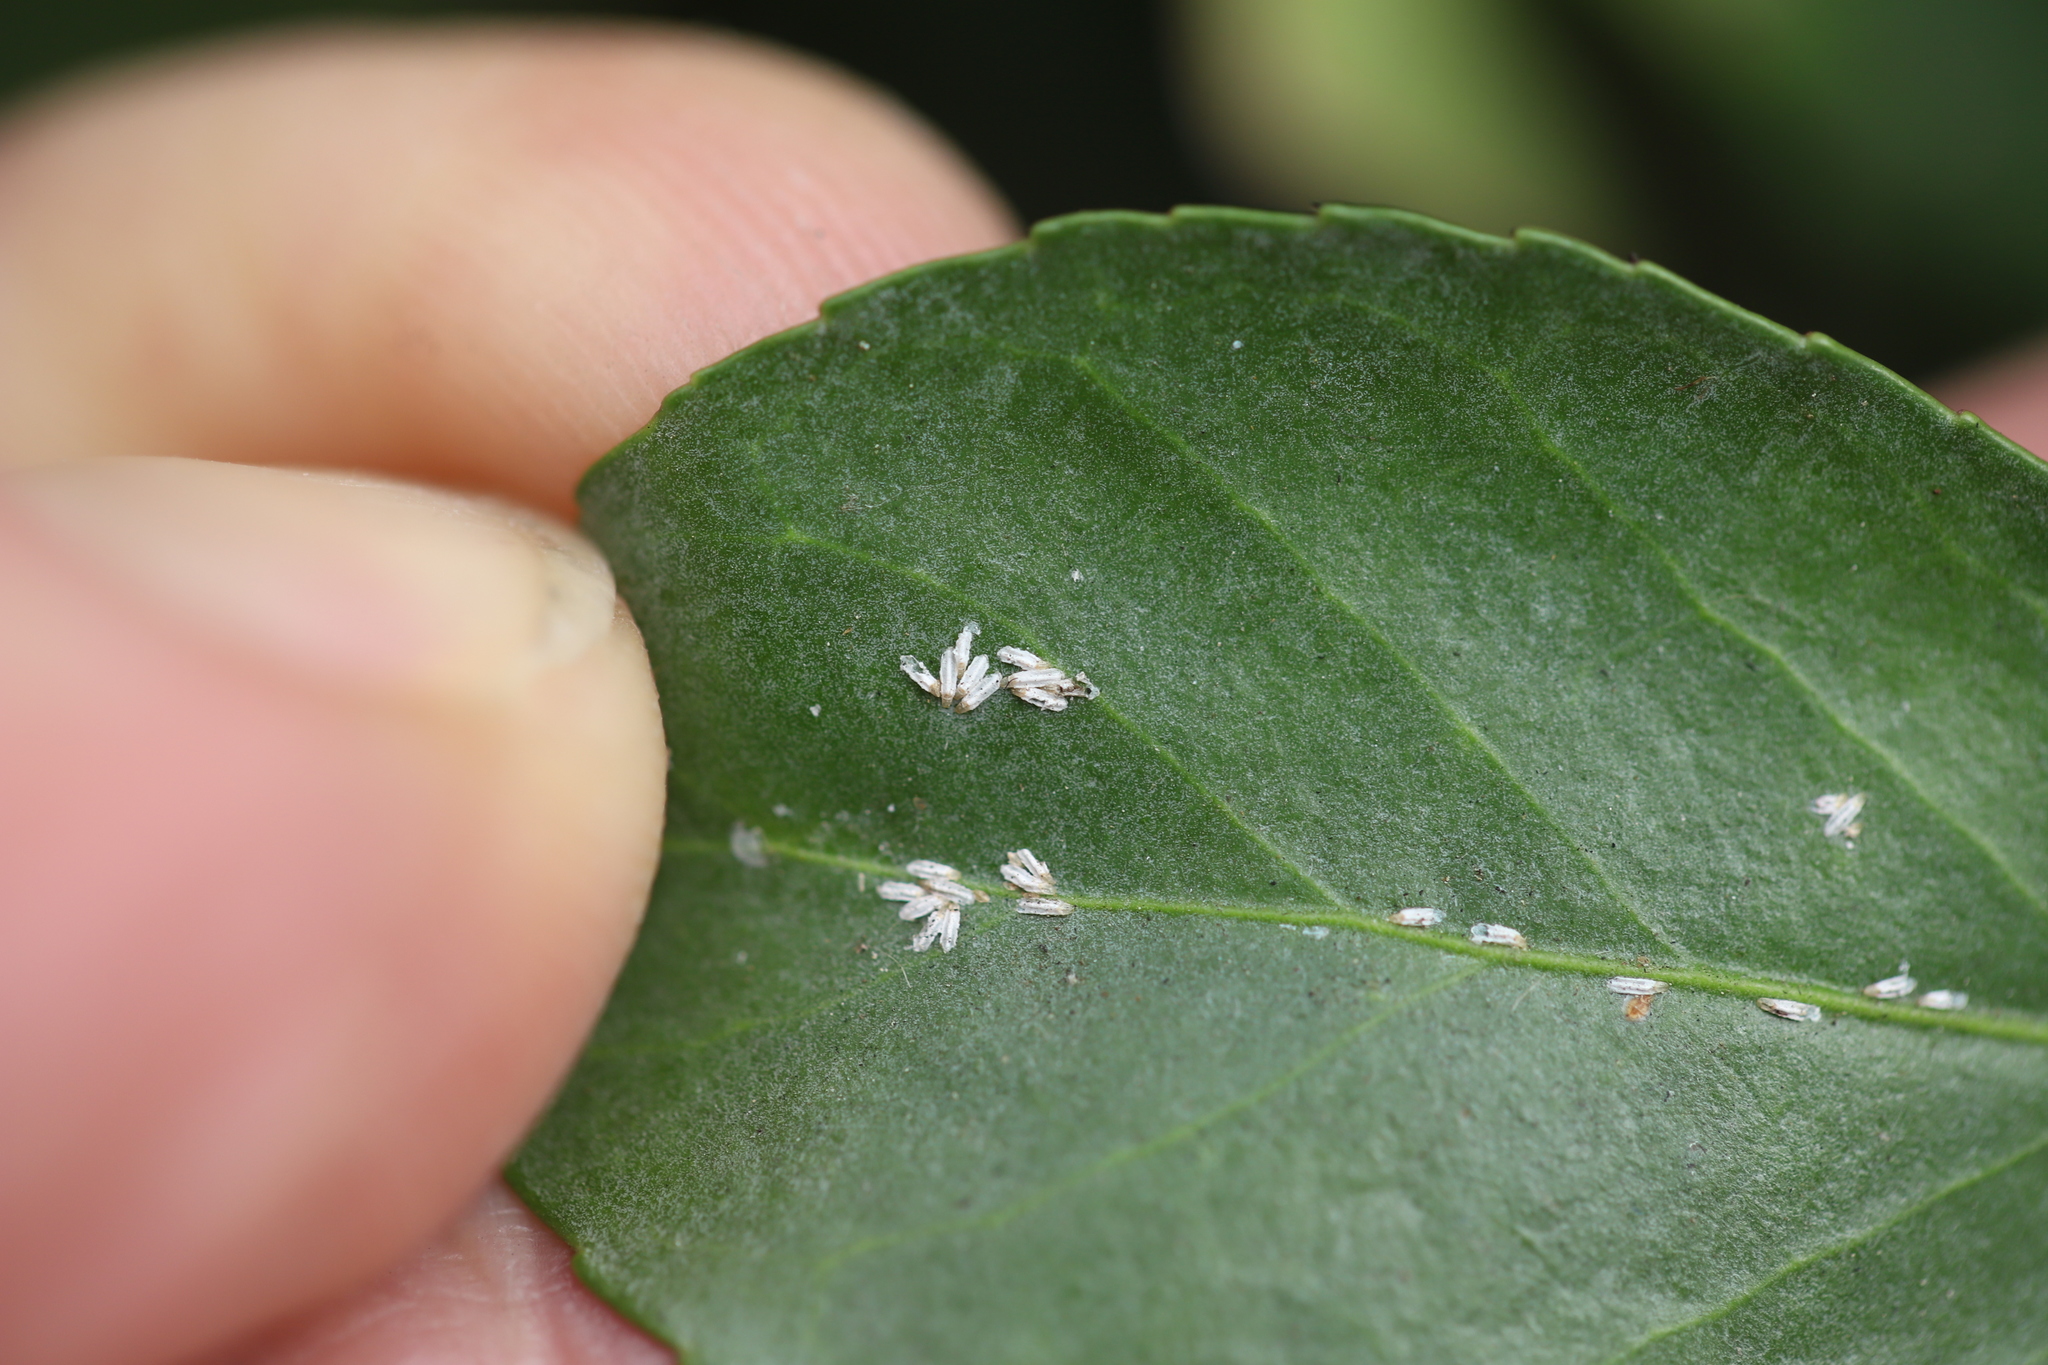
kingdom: Animalia
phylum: Arthropoda
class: Insecta
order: Hemiptera
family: Diaspididae
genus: Unaspis
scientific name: Unaspis euonymi
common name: Euonymus scale
